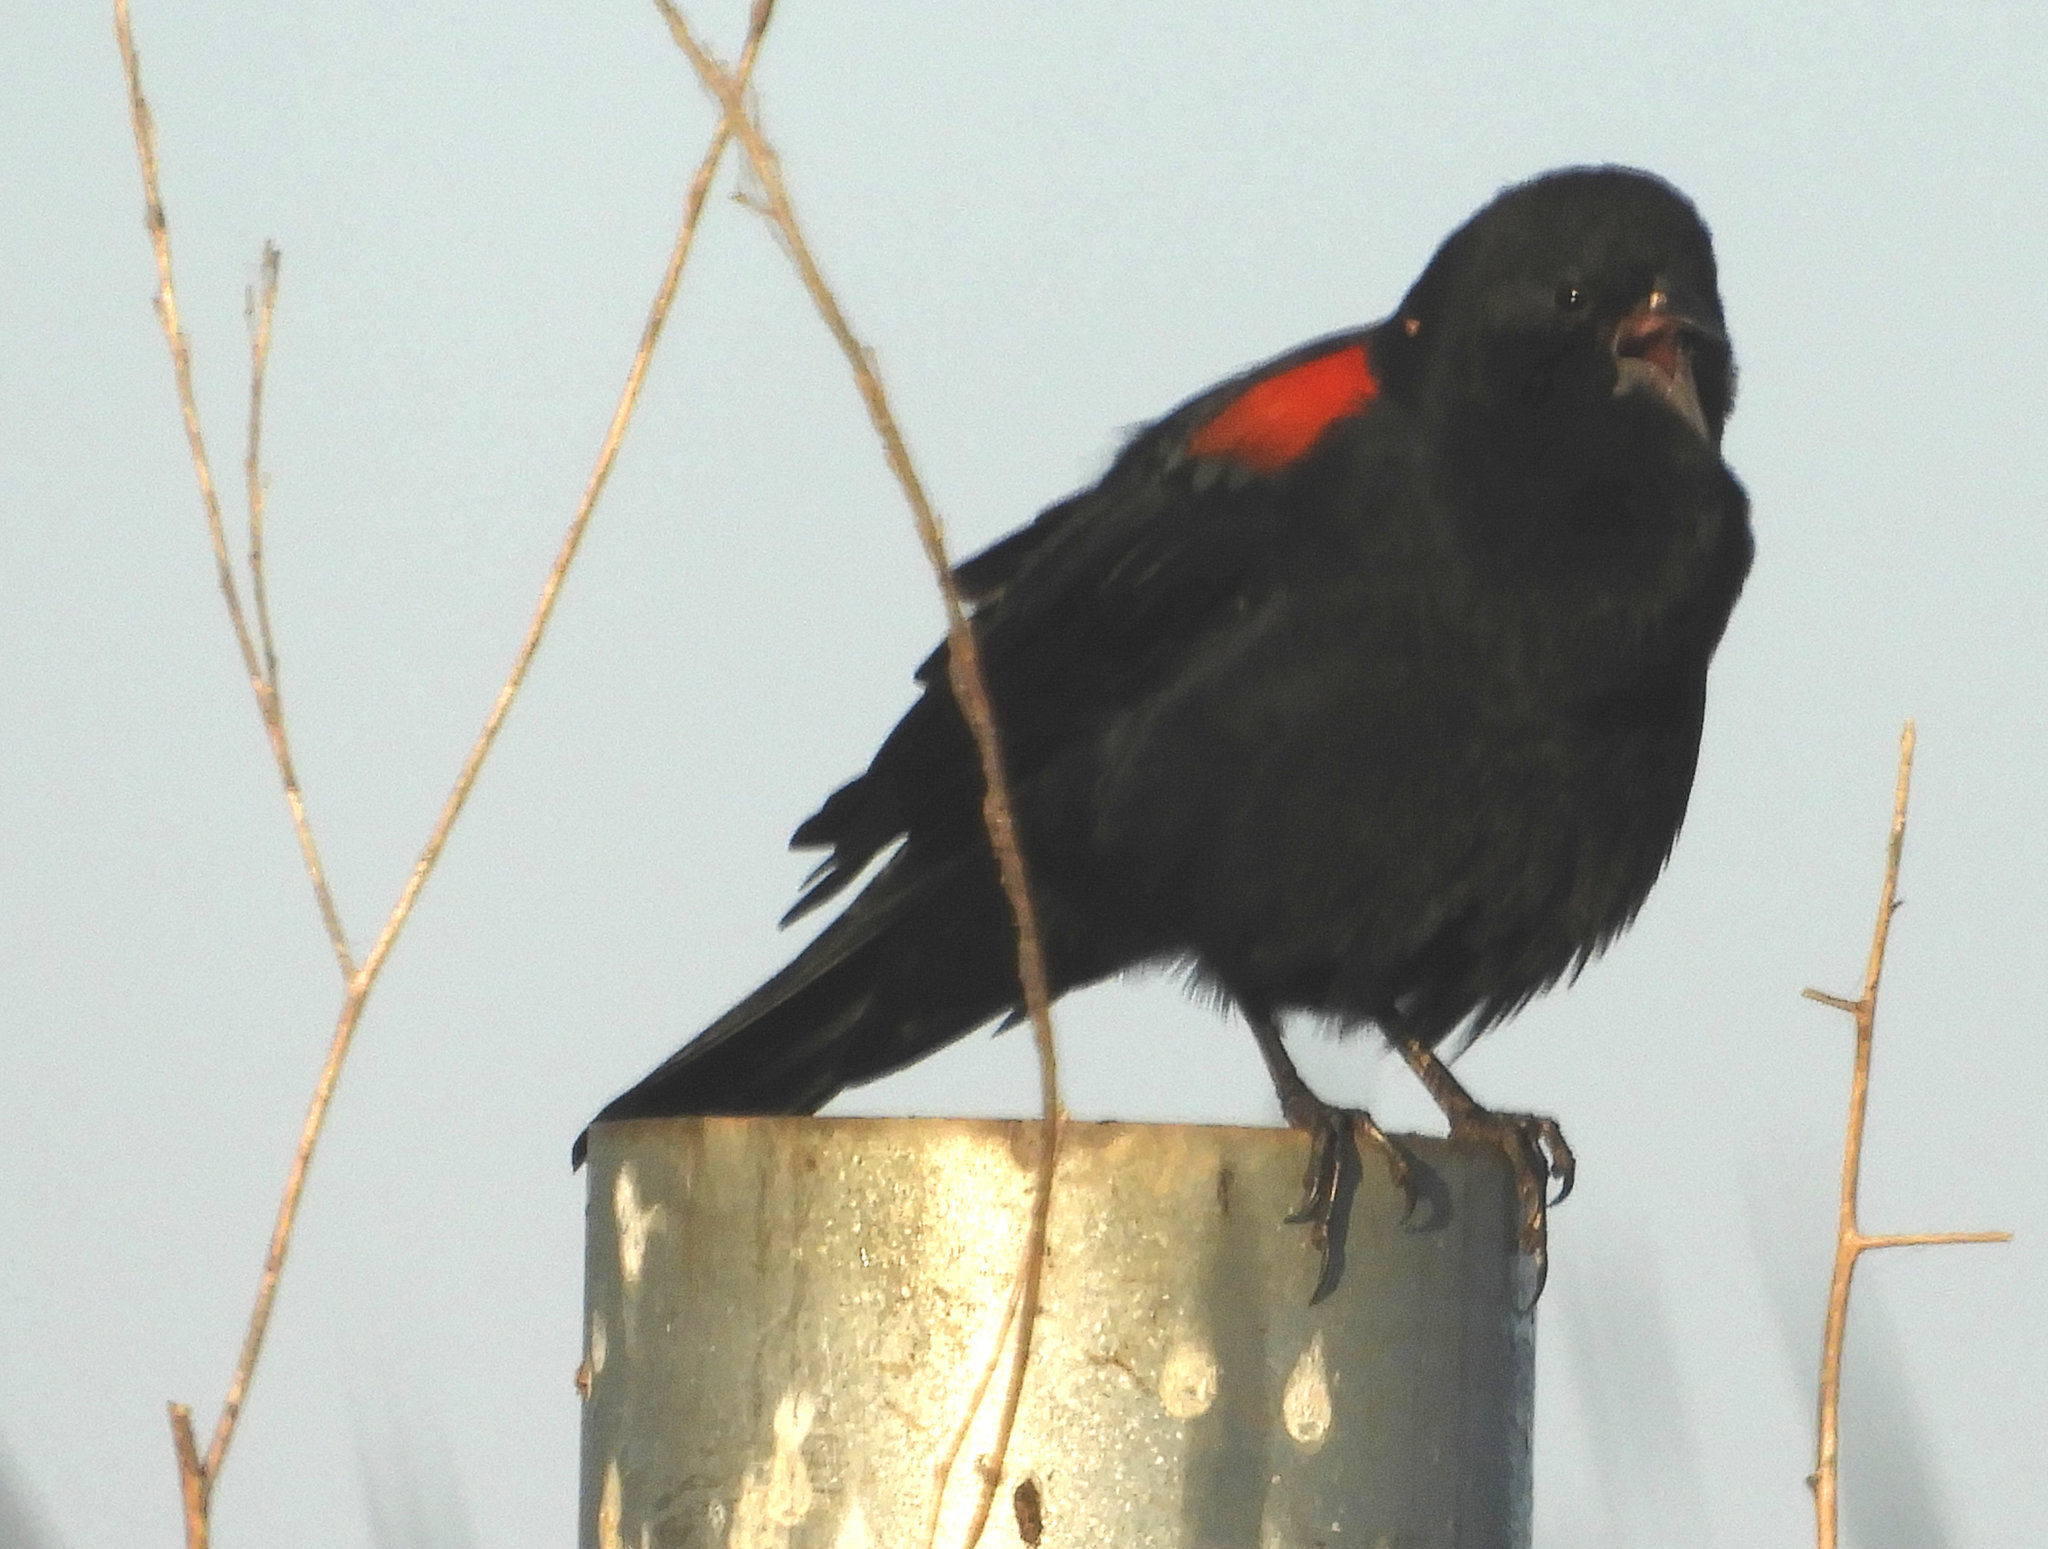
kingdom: Animalia
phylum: Chordata
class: Aves
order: Passeriformes
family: Icteridae
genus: Agelaius
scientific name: Agelaius phoeniceus
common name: Red-winged blackbird
